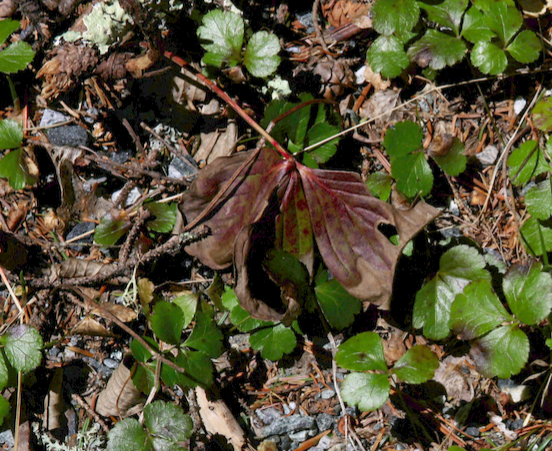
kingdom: Plantae
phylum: Tracheophyta
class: Magnoliopsida
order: Cornales
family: Cornaceae
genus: Cornus
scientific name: Cornus canadensis
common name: Creeping dogwood
